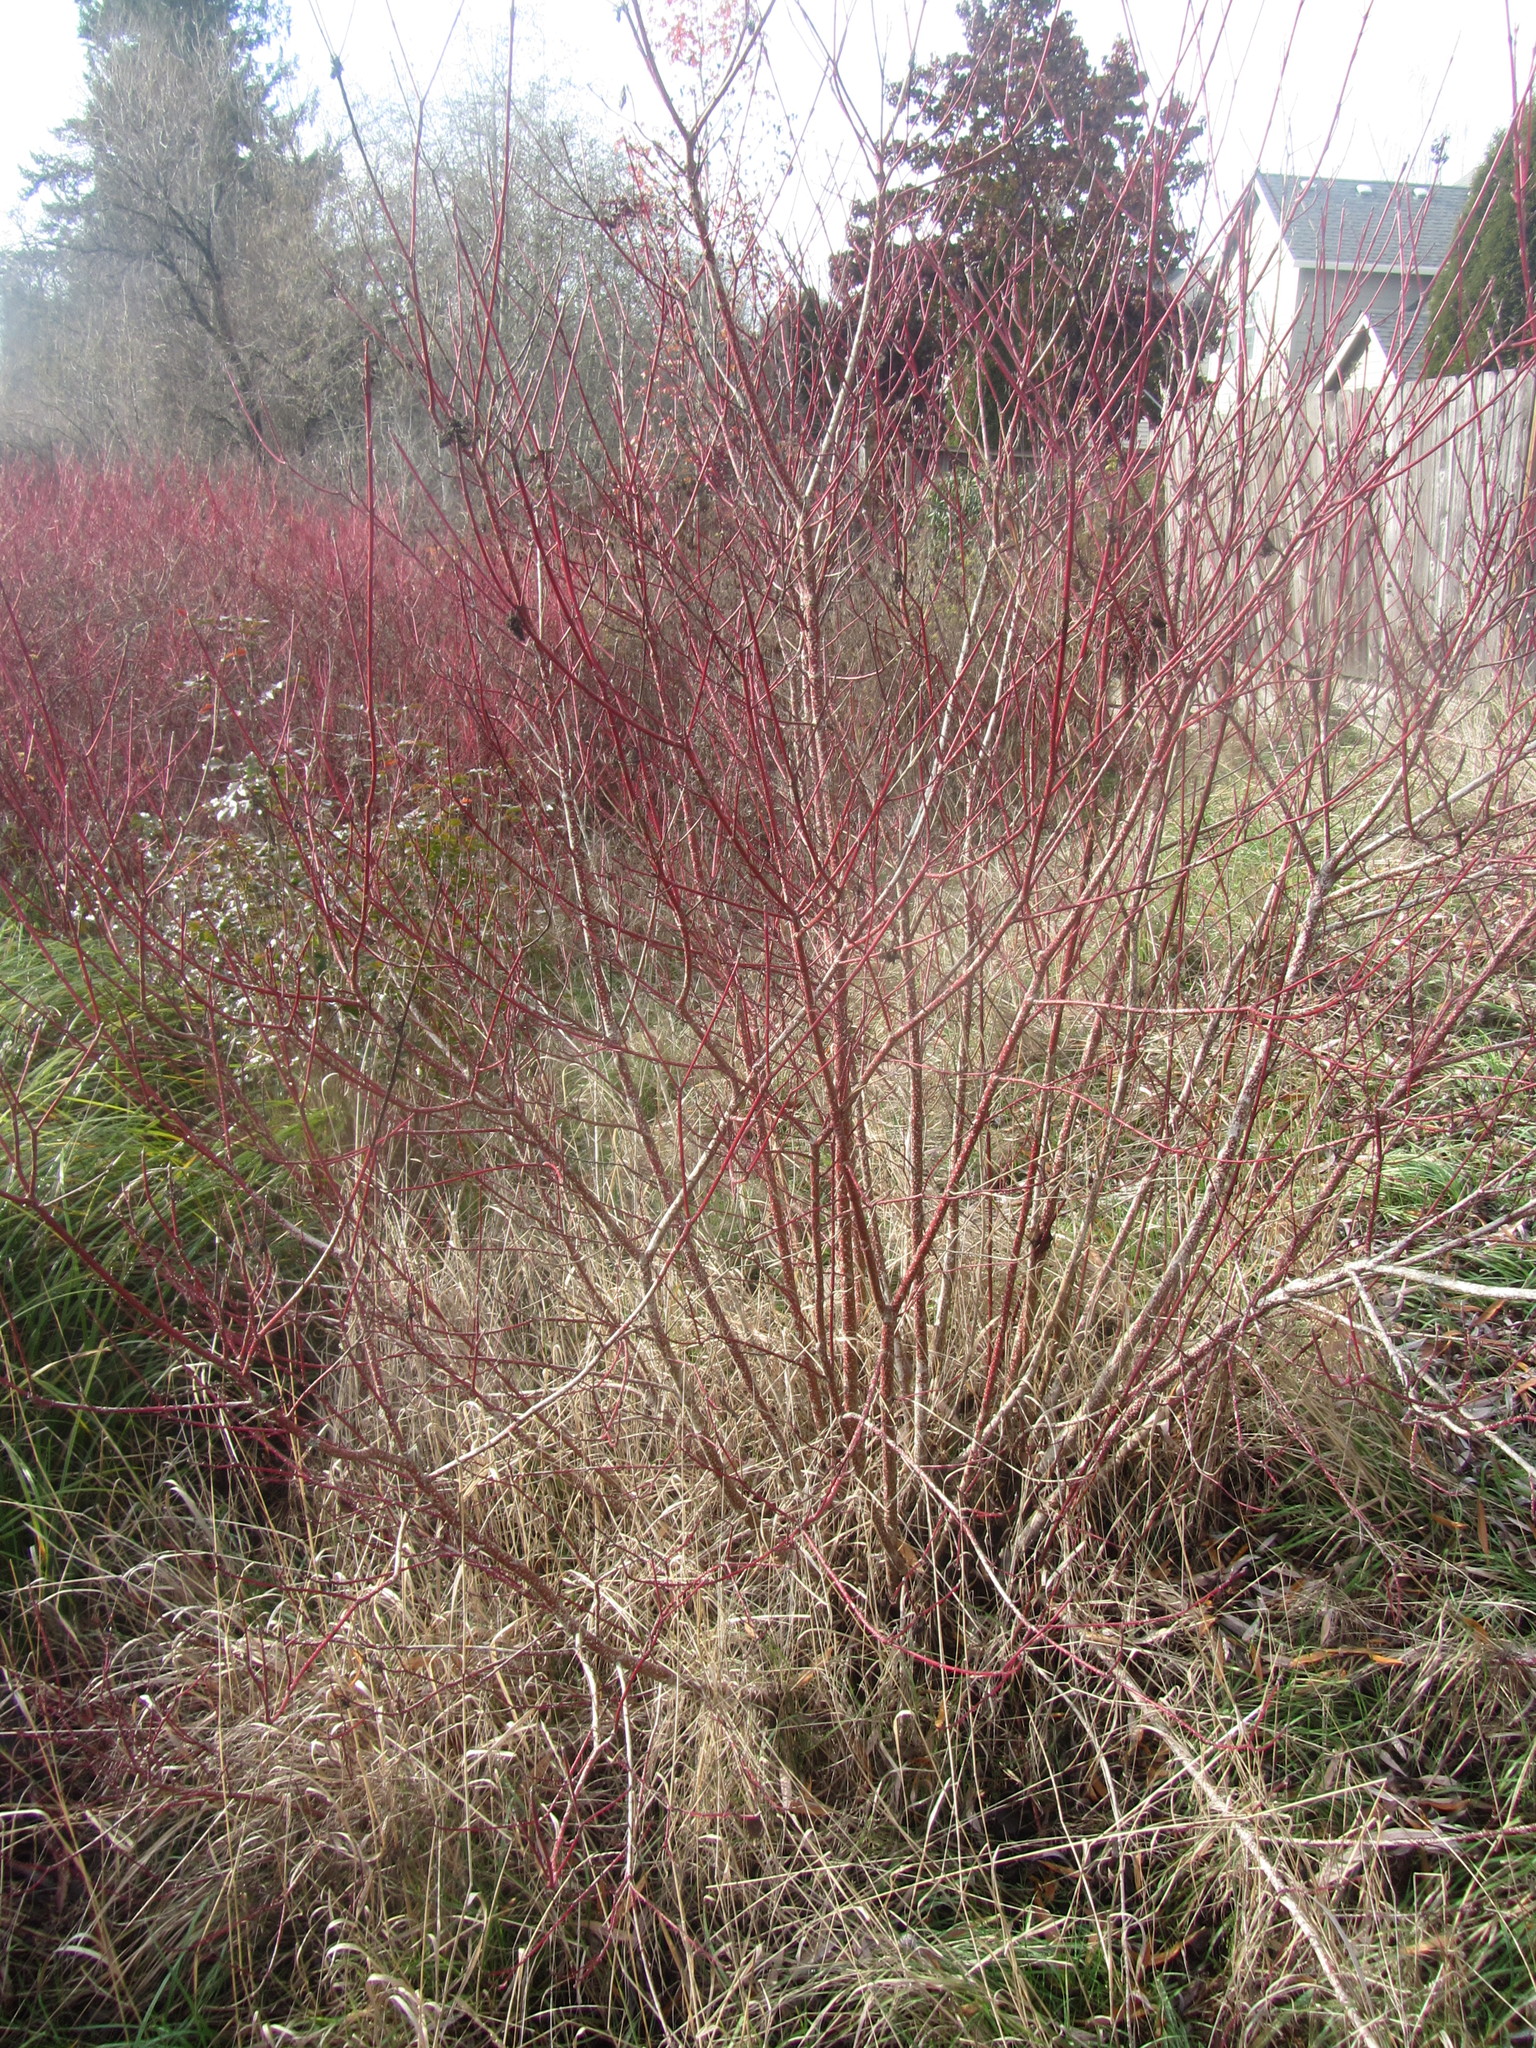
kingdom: Plantae
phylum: Tracheophyta
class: Magnoliopsida
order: Cornales
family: Cornaceae
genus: Cornus
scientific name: Cornus sericea
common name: Red-osier dogwood
